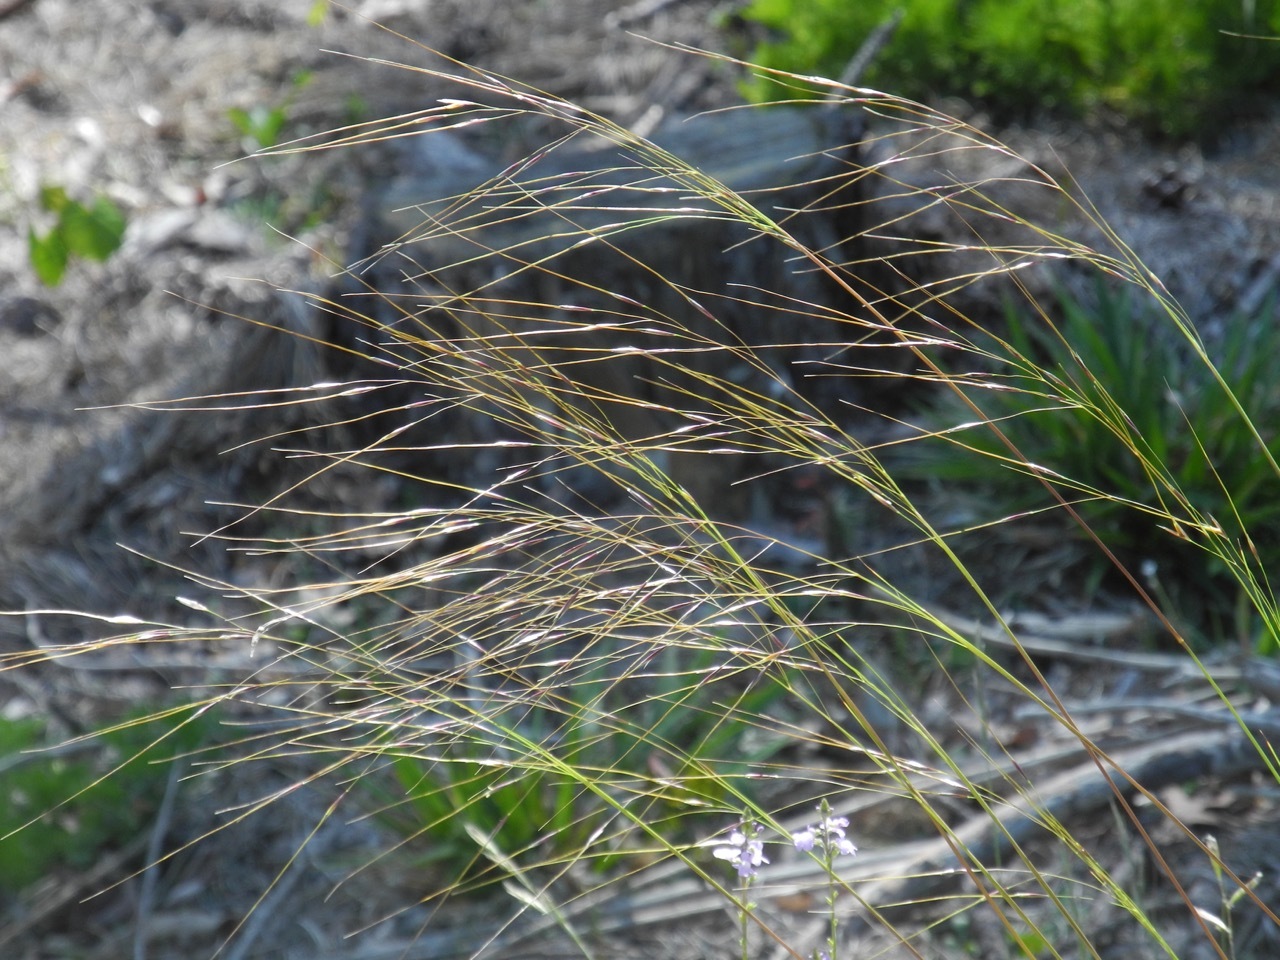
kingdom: Plantae
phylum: Tracheophyta
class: Liliopsida
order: Poales
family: Poaceae
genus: Hesperostipa
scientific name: Hesperostipa spartea
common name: Porcupine grass
